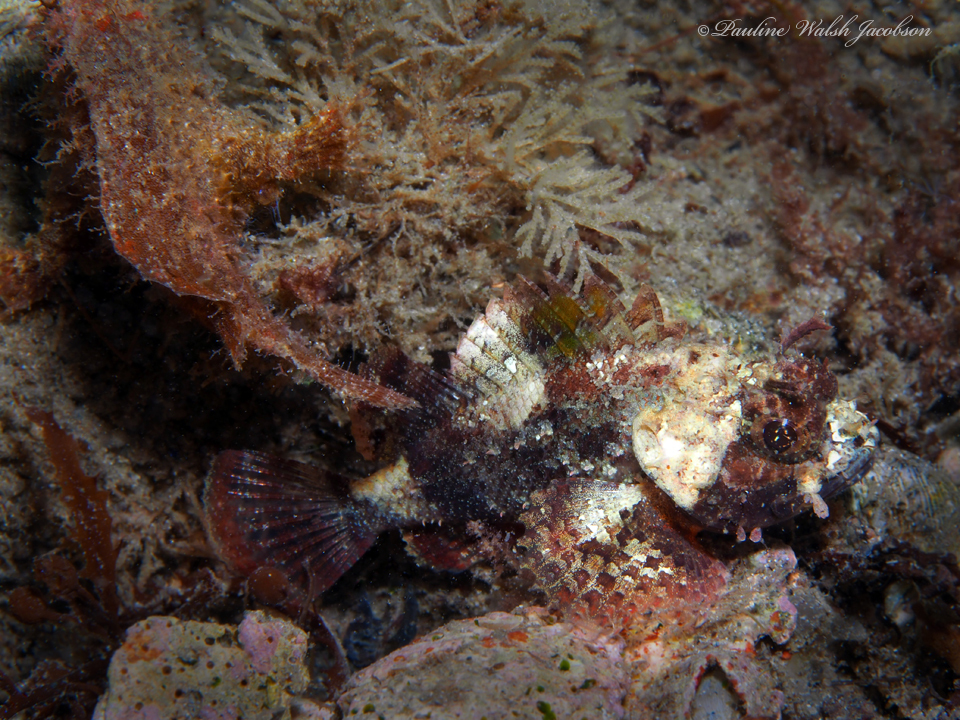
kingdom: Animalia
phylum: Chordata
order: Scorpaeniformes
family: Scorpaenidae
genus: Scorpaena
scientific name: Scorpaena brasiliensis
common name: Barbfish
